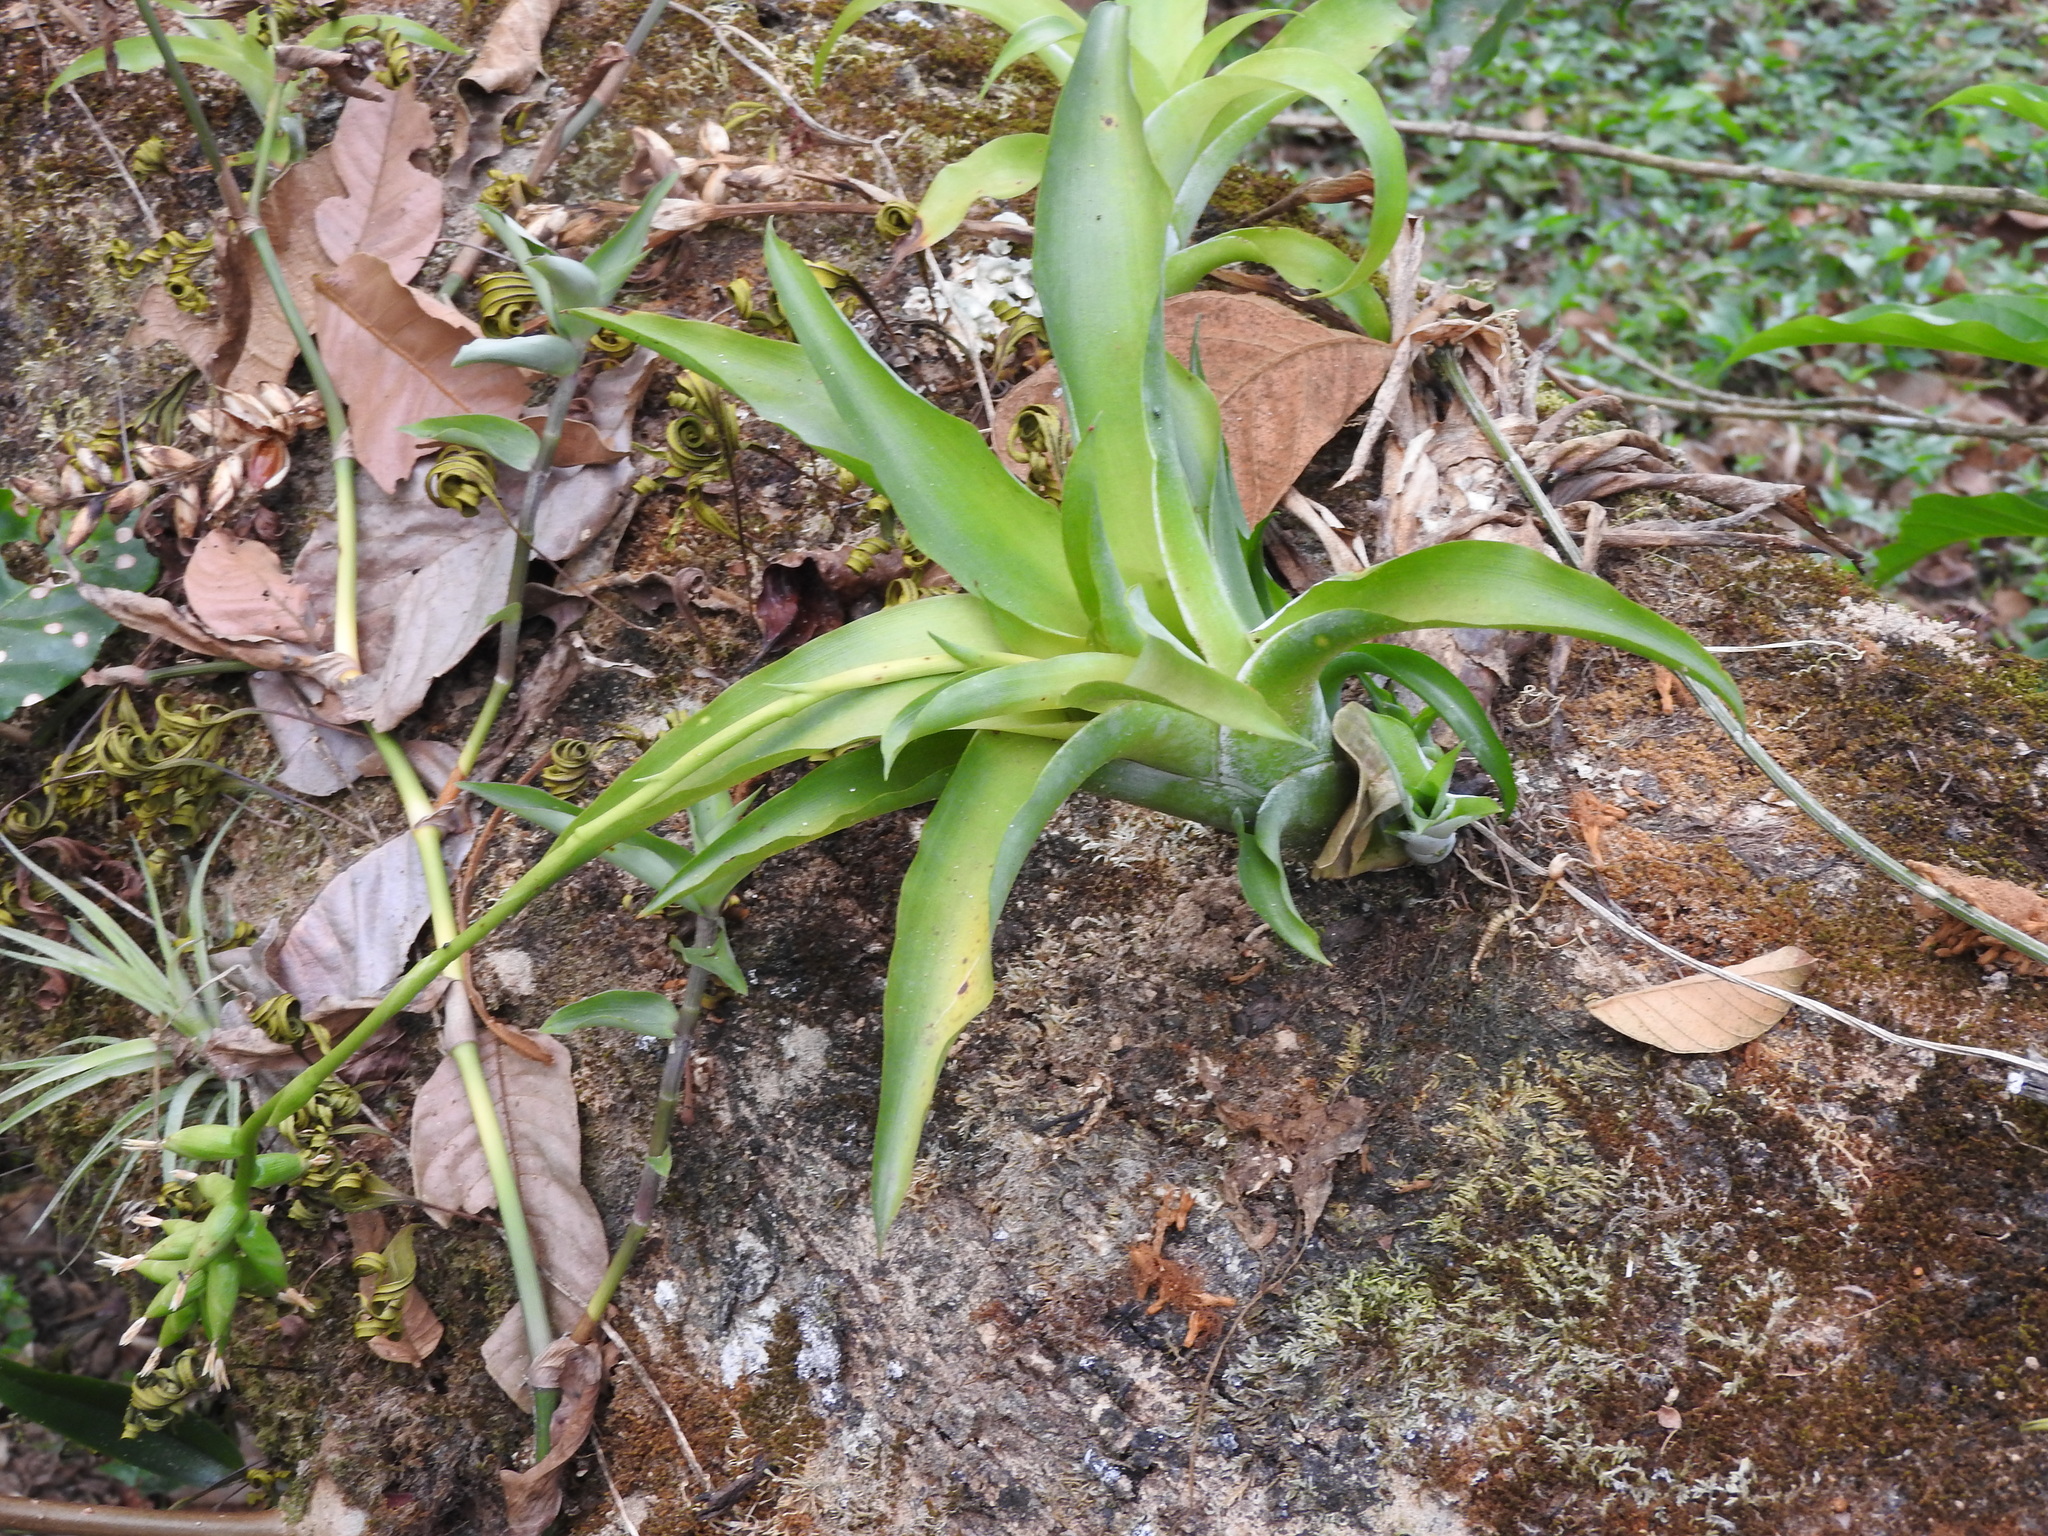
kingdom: Plantae
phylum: Tracheophyta
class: Liliopsida
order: Poales
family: Bromeliaceae
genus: Catopsis
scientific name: Catopsis nutans
